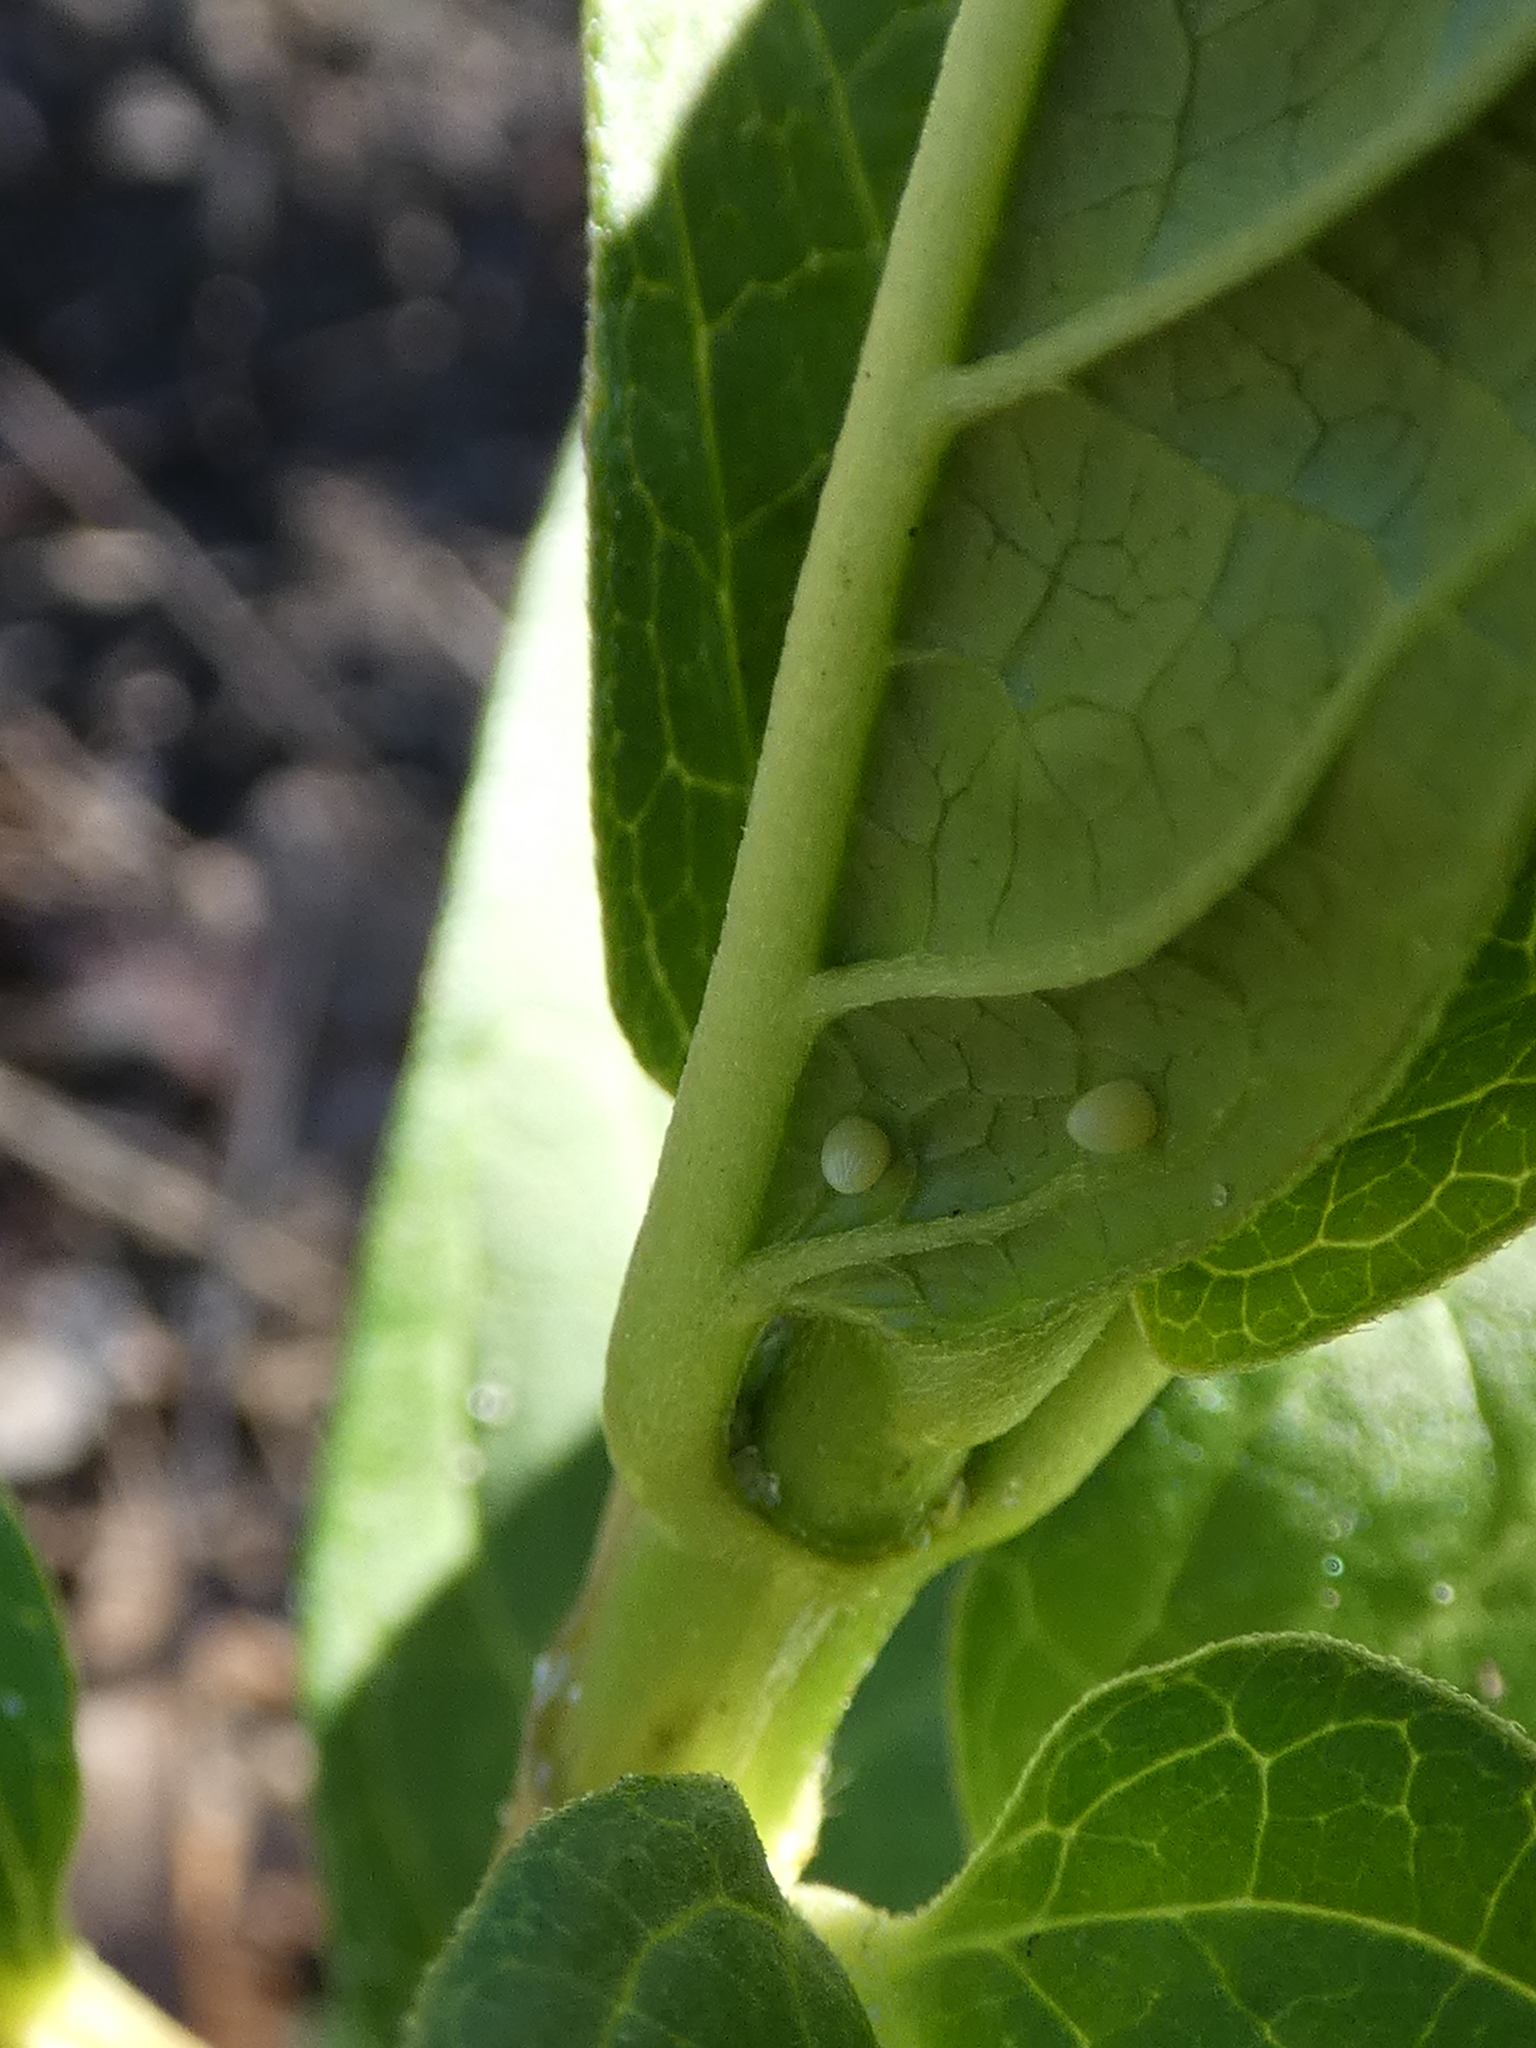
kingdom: Animalia
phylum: Arthropoda
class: Insecta
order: Lepidoptera
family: Nymphalidae
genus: Danaus
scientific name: Danaus plexippus
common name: Monarch
